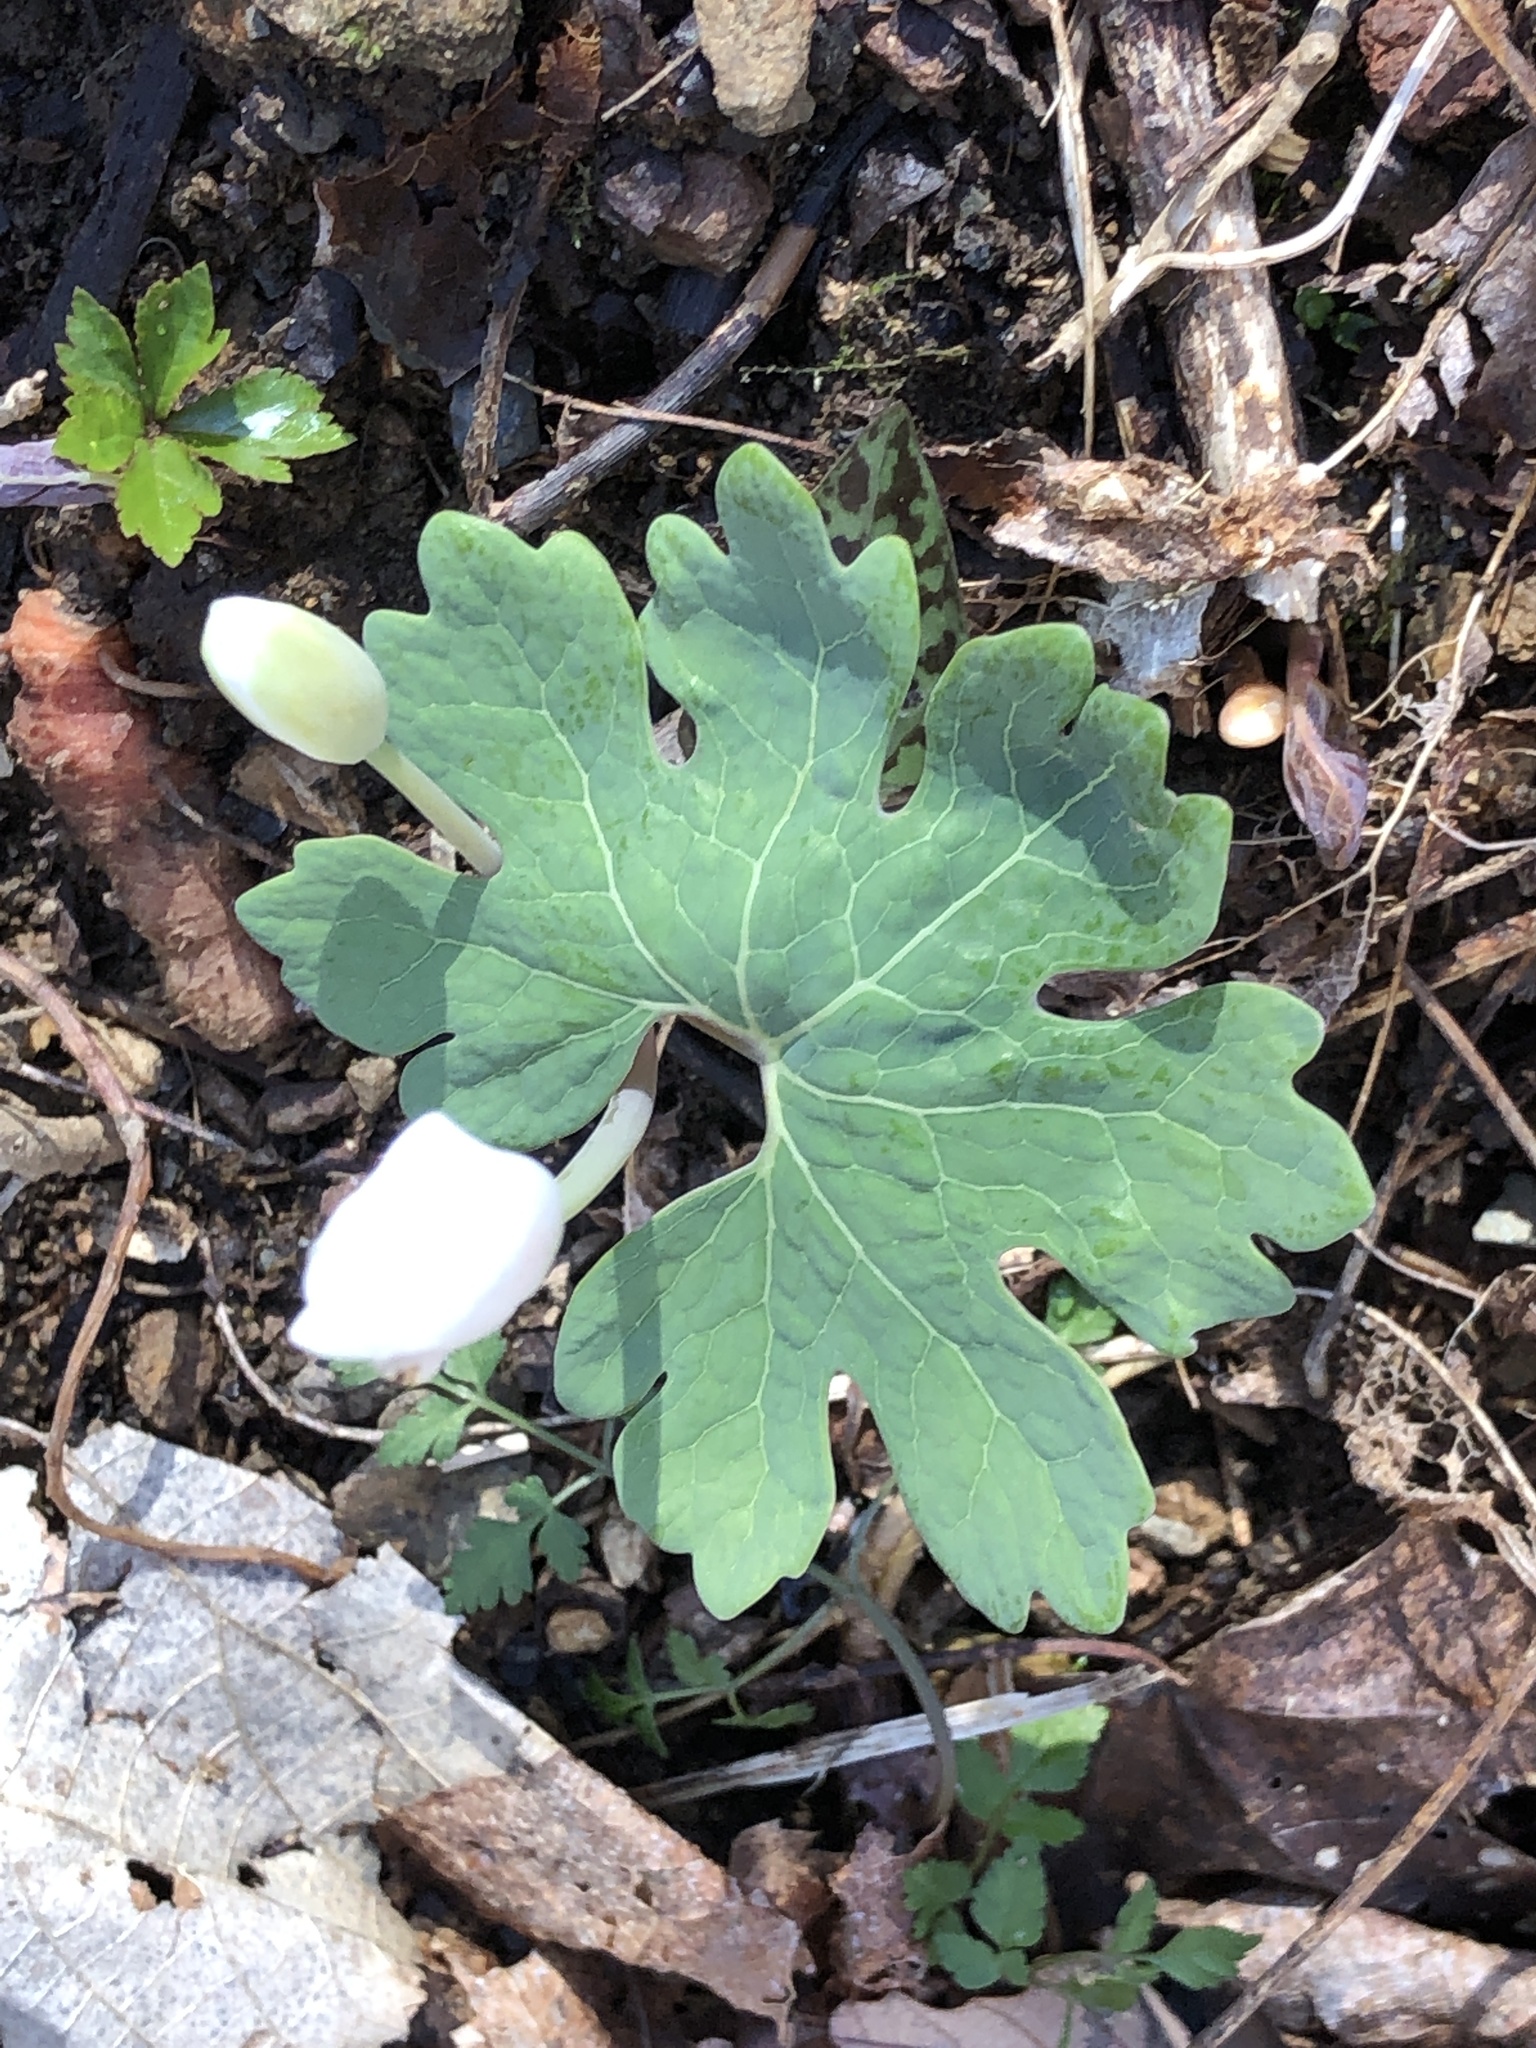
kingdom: Plantae
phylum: Tracheophyta
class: Magnoliopsida
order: Ranunculales
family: Papaveraceae
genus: Sanguinaria
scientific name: Sanguinaria canadensis
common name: Bloodroot
